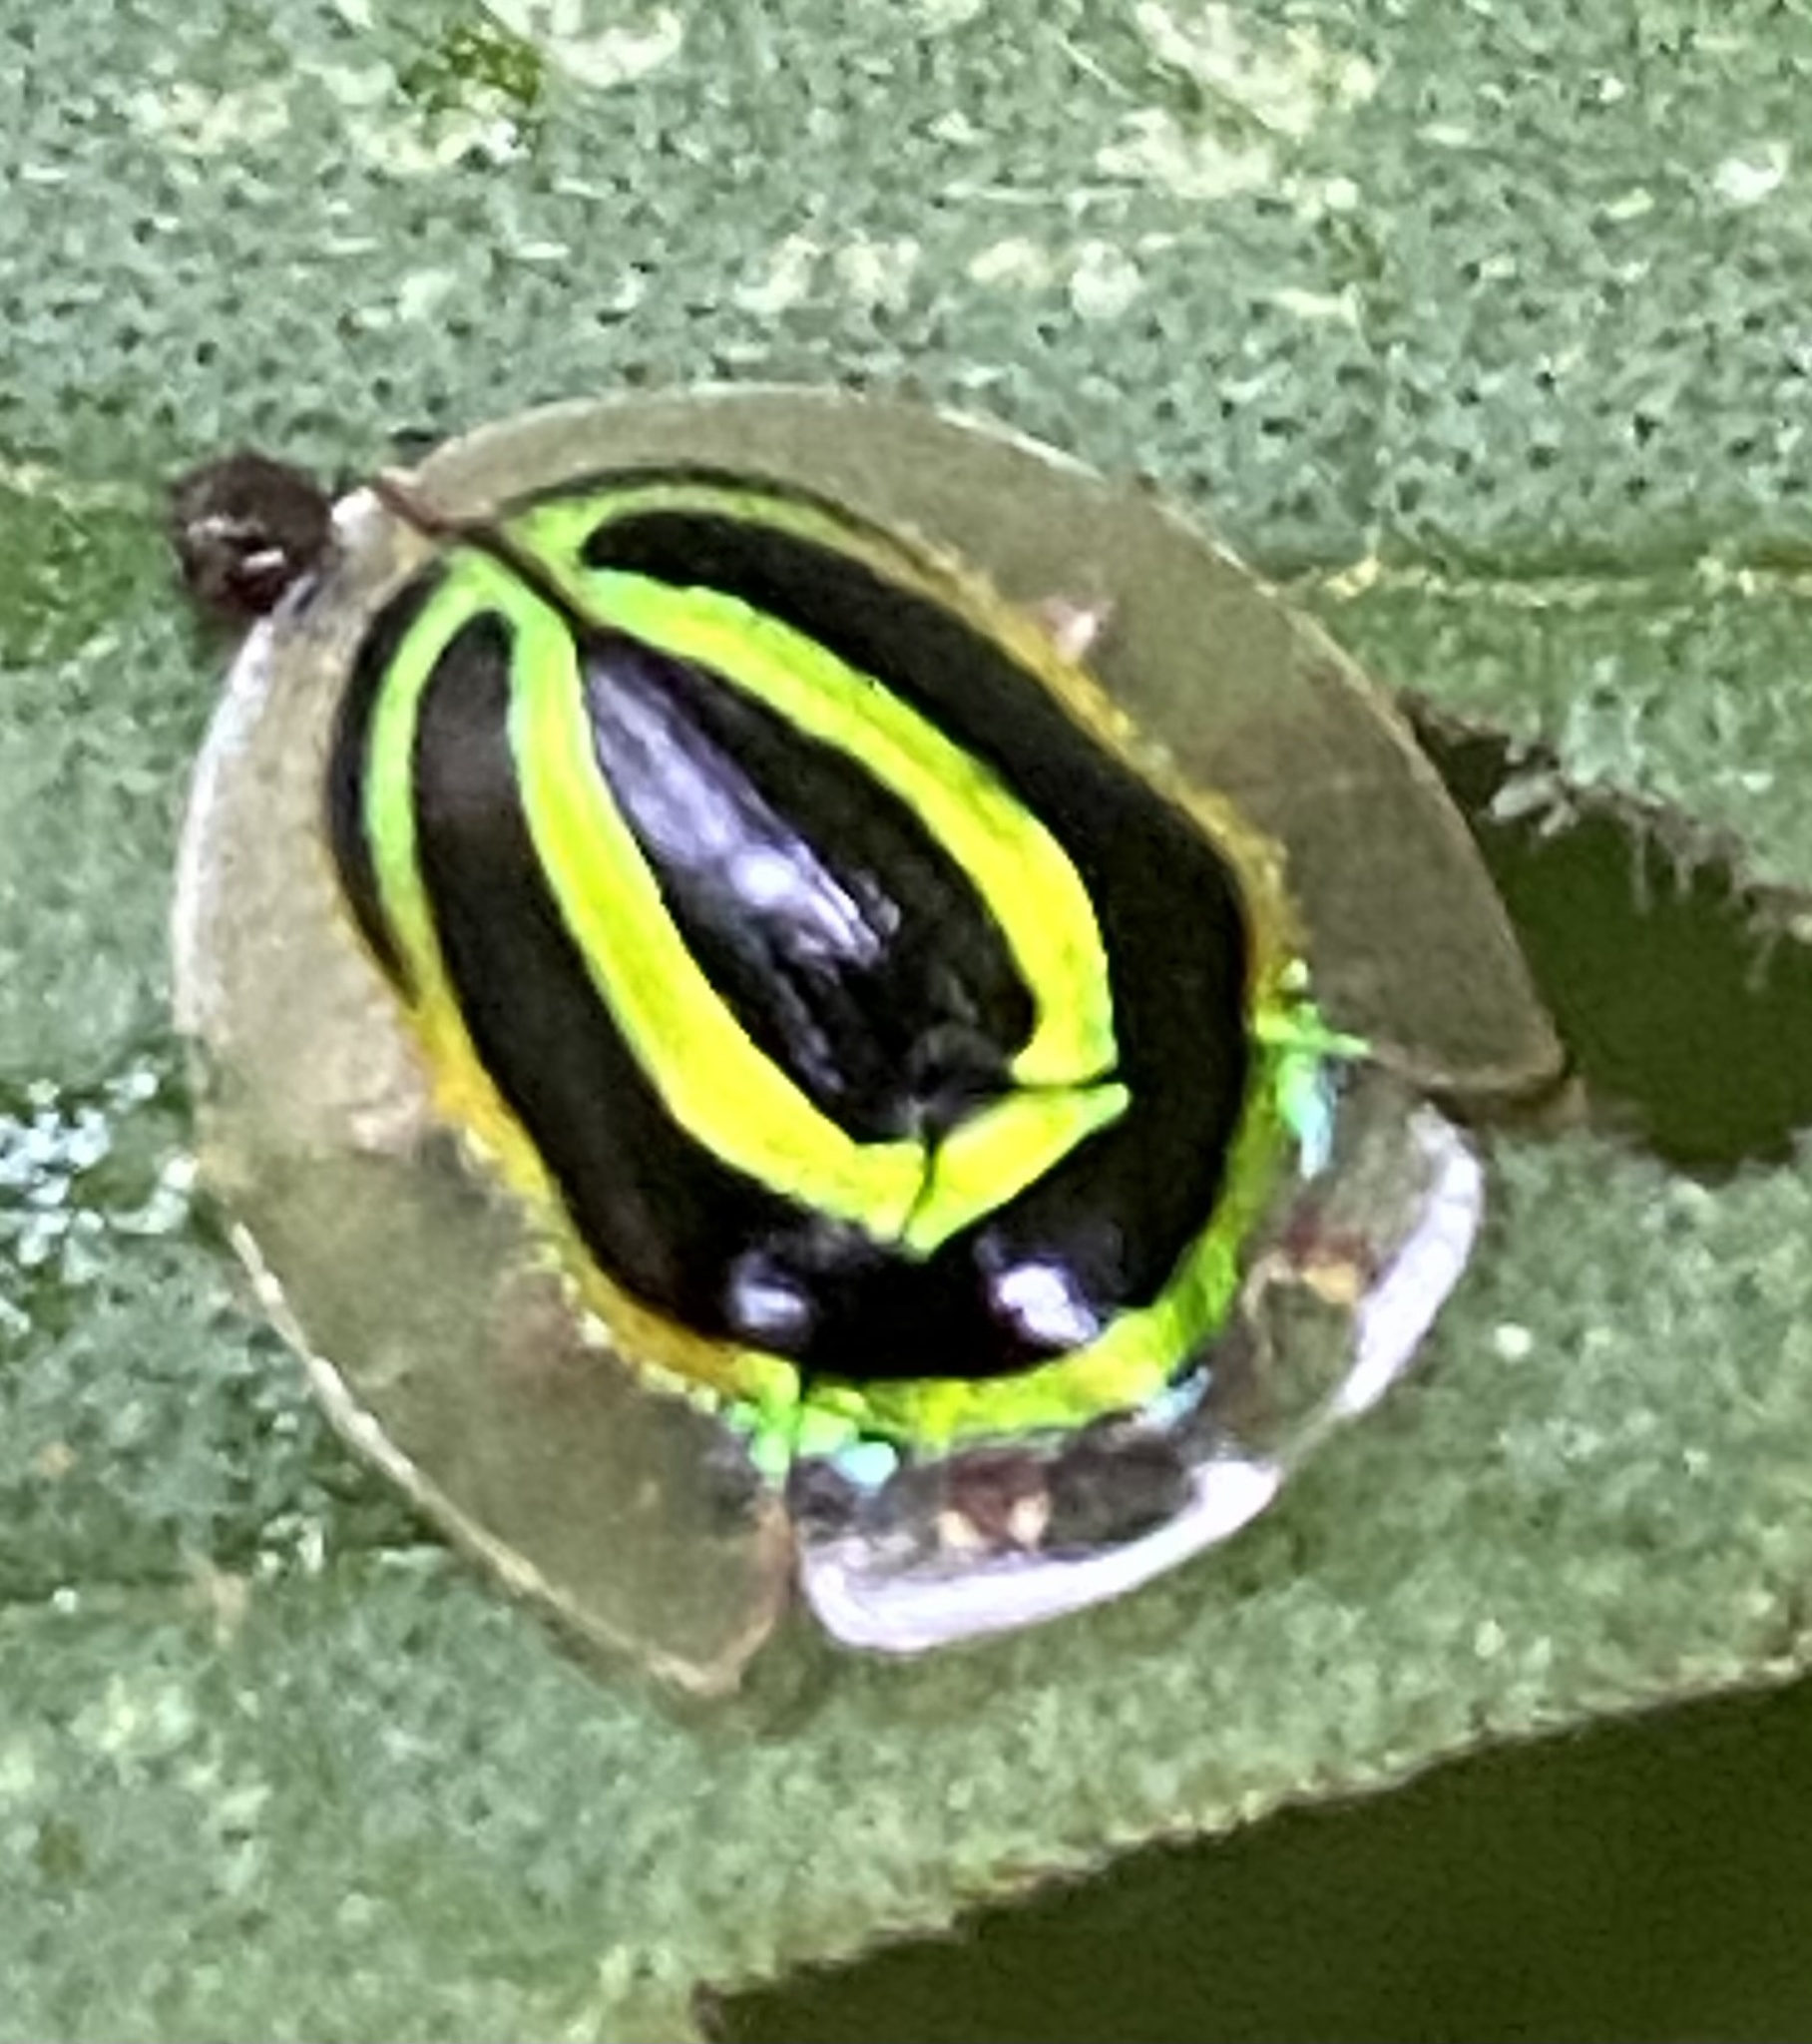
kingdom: Animalia
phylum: Arthropoda
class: Insecta
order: Coleoptera
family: Chrysomelidae
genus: Coptocycla
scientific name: Coptocycla arcuata
